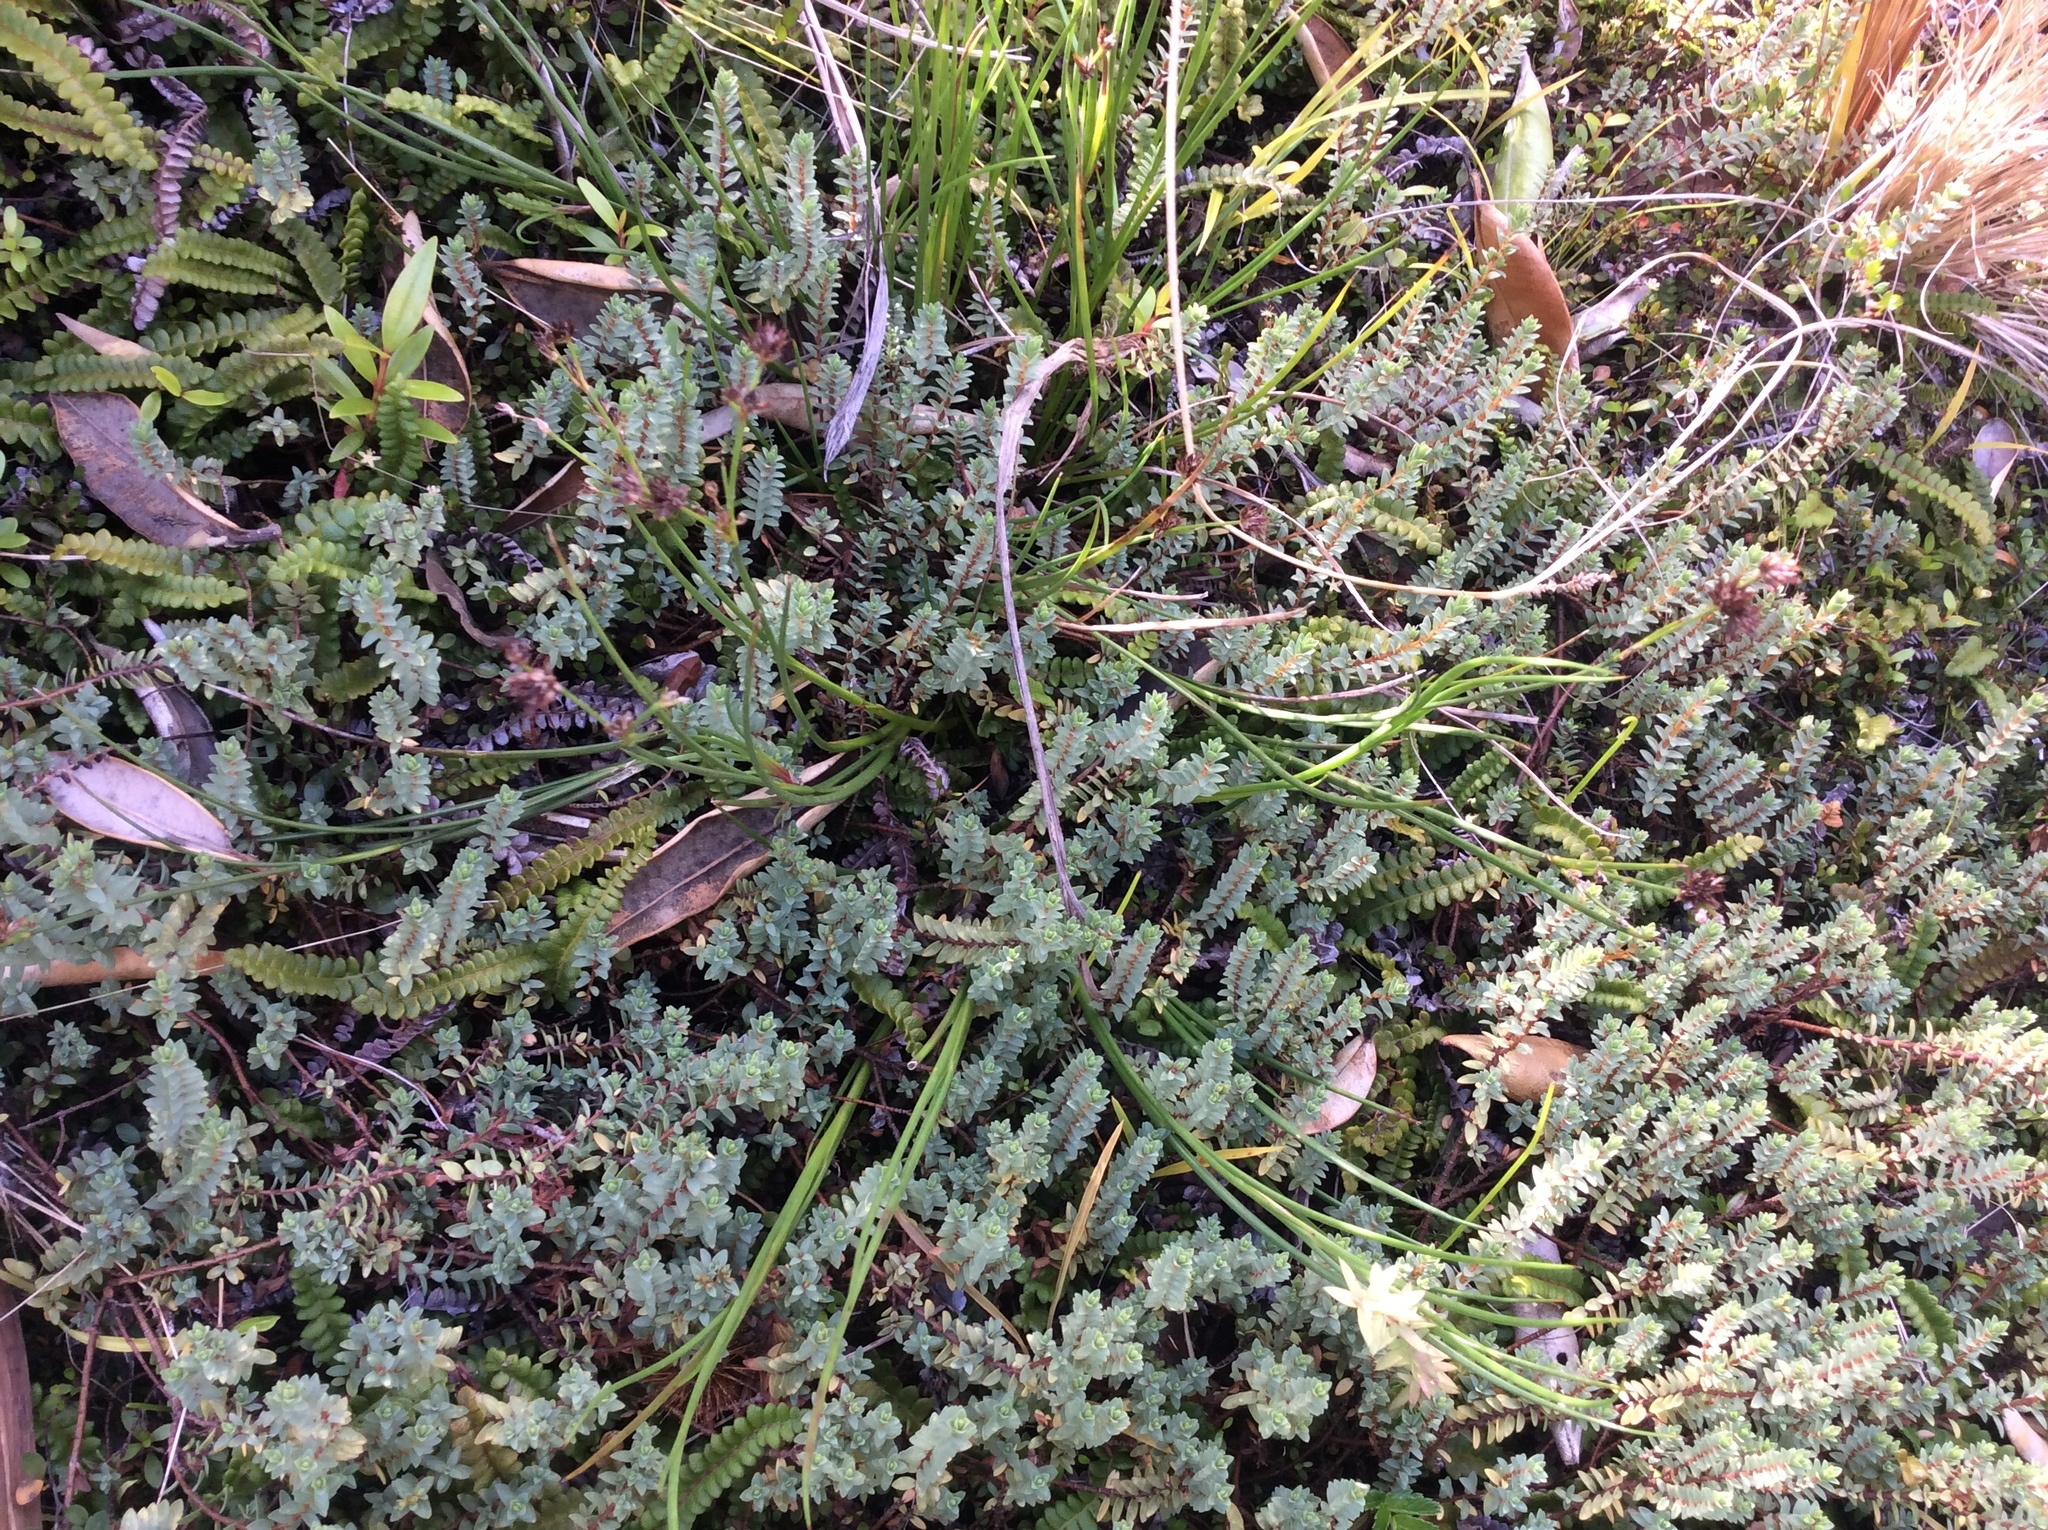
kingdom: Plantae
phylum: Tracheophyta
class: Liliopsida
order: Poales
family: Juncaceae
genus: Juncus
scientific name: Juncus articulatus
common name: Jointed rush
